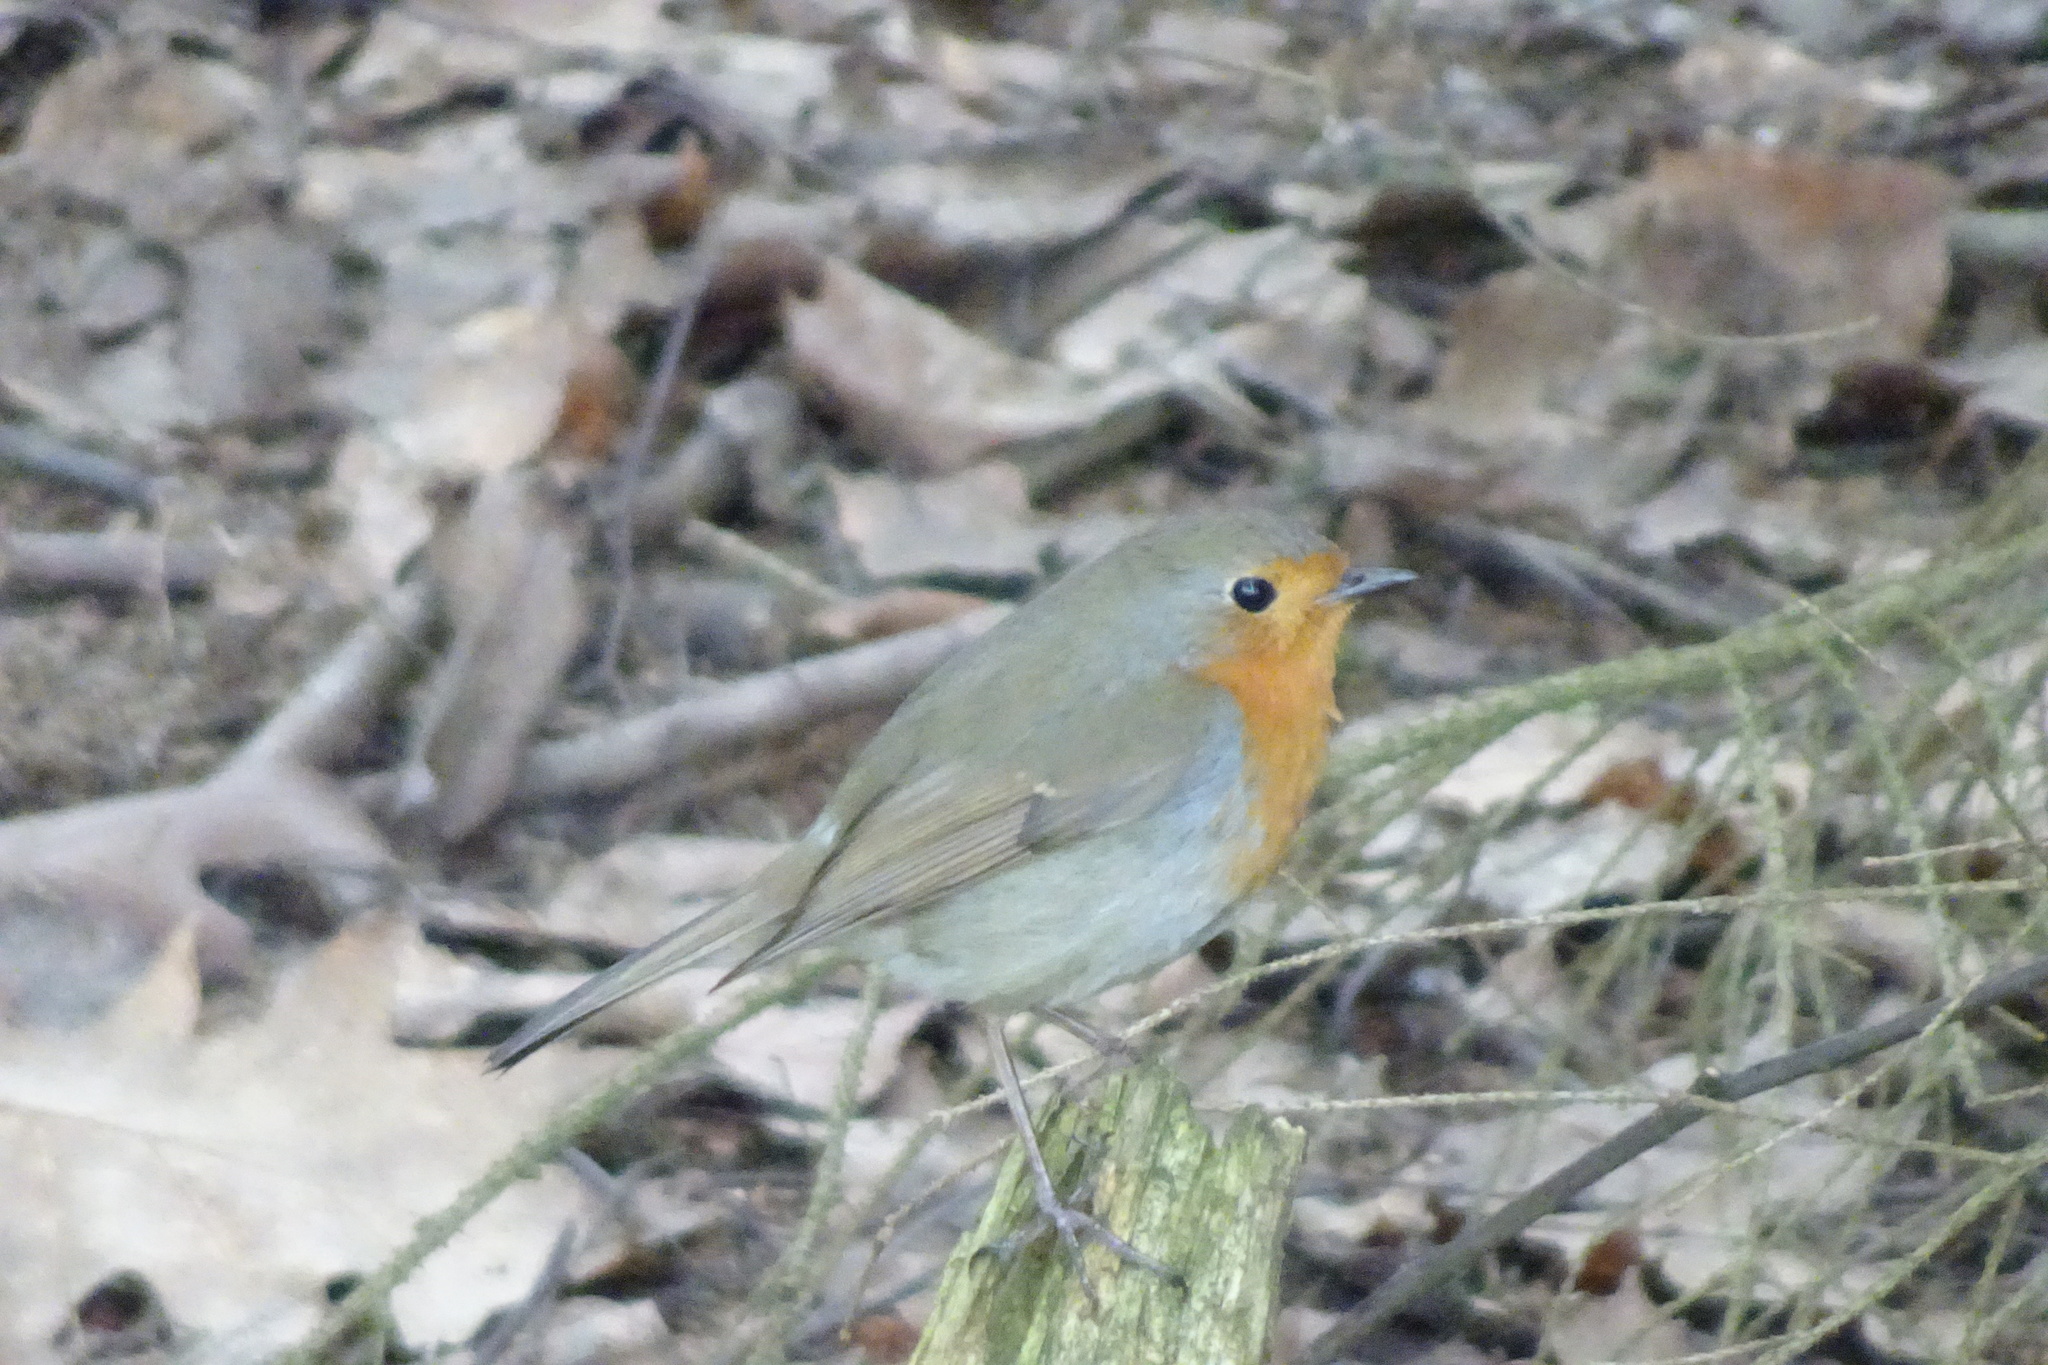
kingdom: Animalia
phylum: Chordata
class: Aves
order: Passeriformes
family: Muscicapidae
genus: Erithacus
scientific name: Erithacus rubecula
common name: European robin
